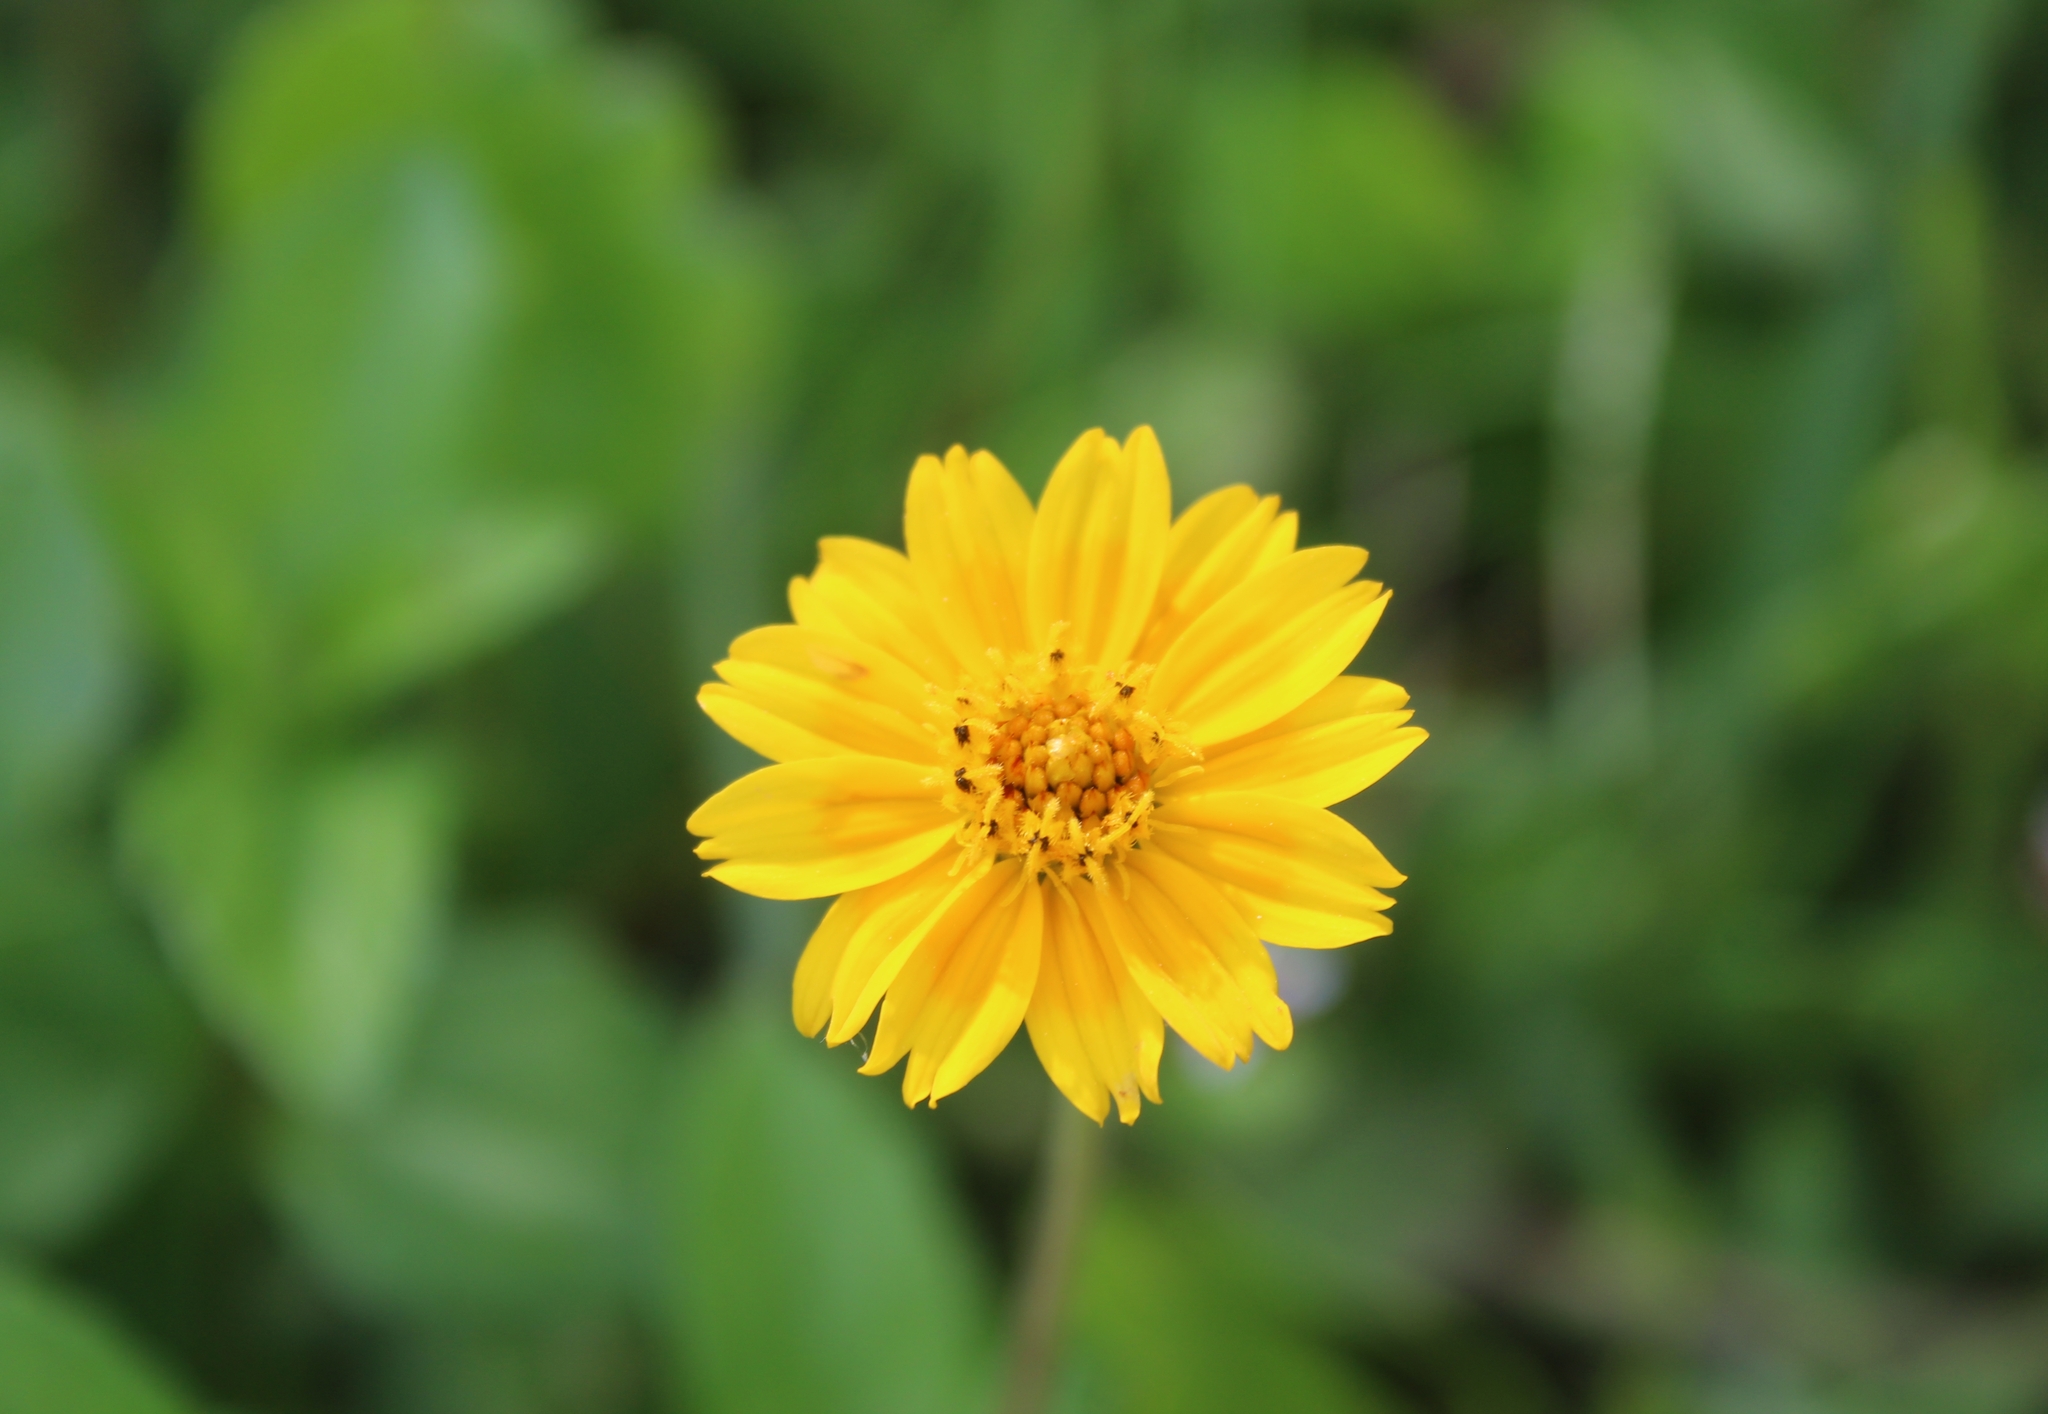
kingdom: Plantae
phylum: Tracheophyta
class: Magnoliopsida
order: Asterales
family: Asteraceae
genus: Sphagneticola
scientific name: Sphagneticola trilobata
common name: Bay biscayne creeping-oxeye
